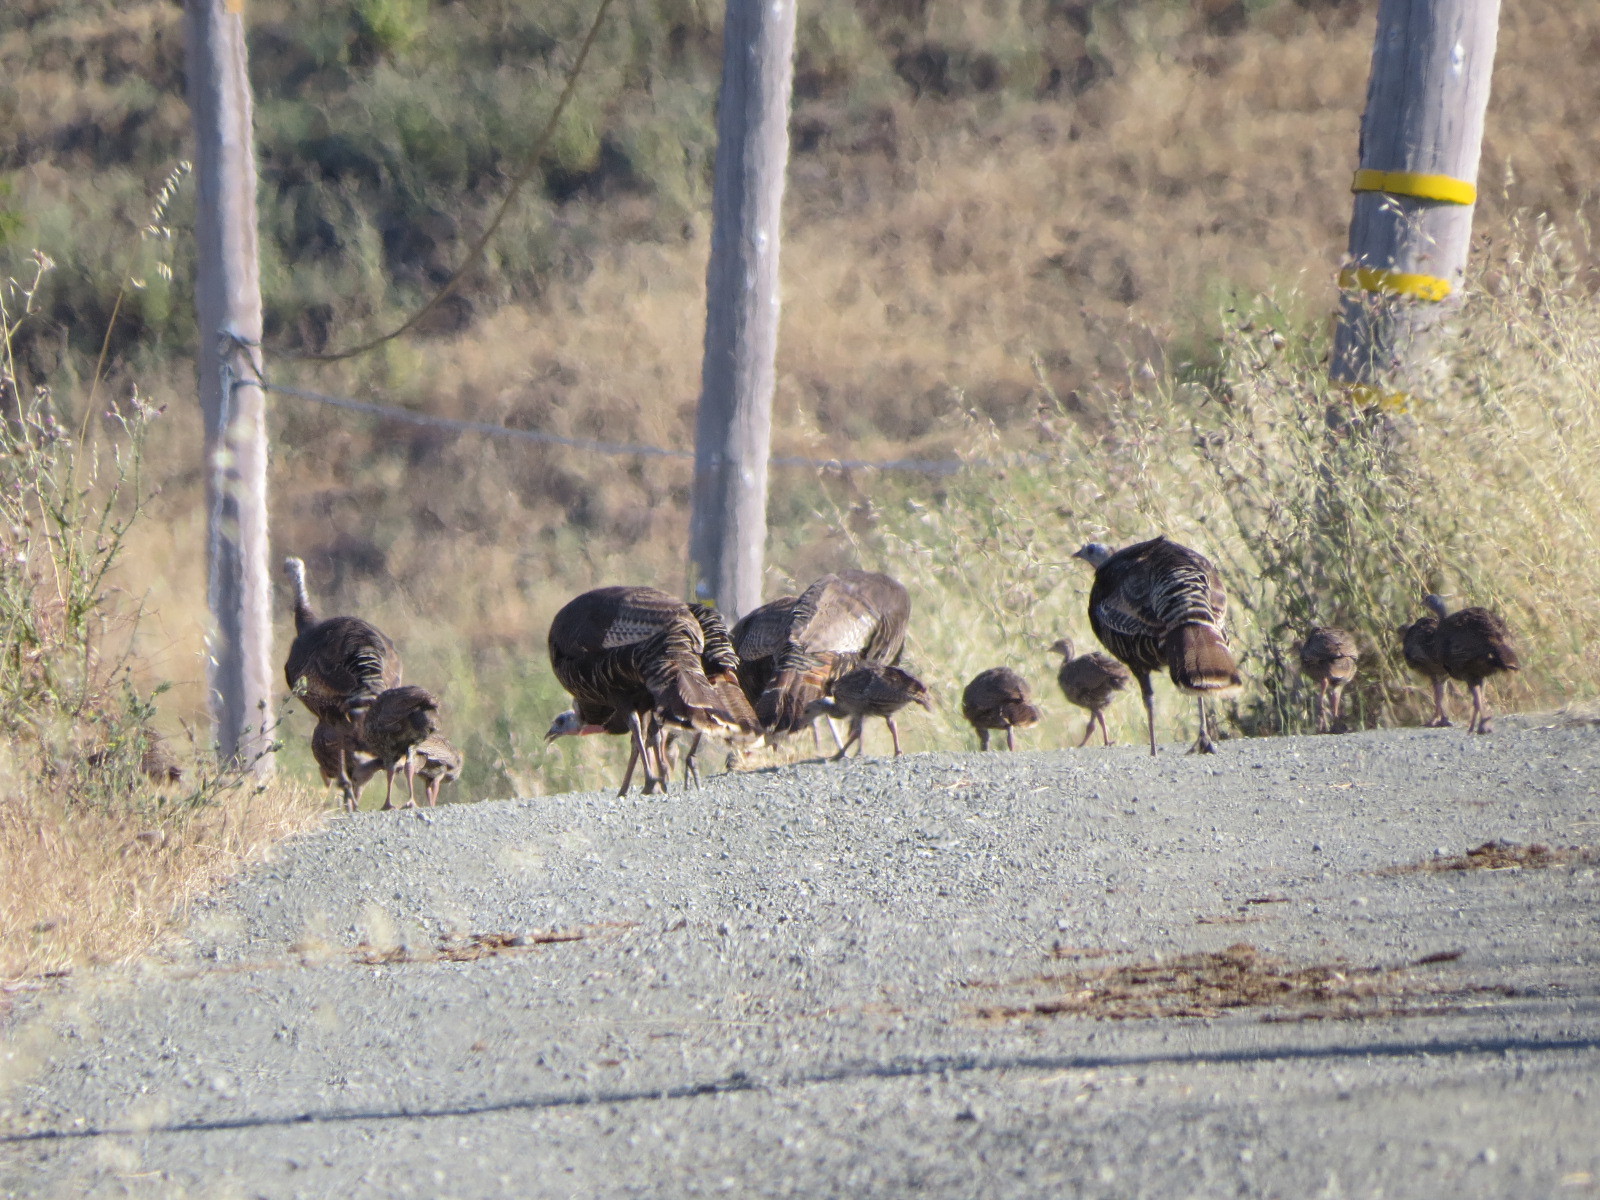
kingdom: Animalia
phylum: Chordata
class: Aves
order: Galliformes
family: Phasianidae
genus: Meleagris
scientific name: Meleagris gallopavo
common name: Wild turkey
